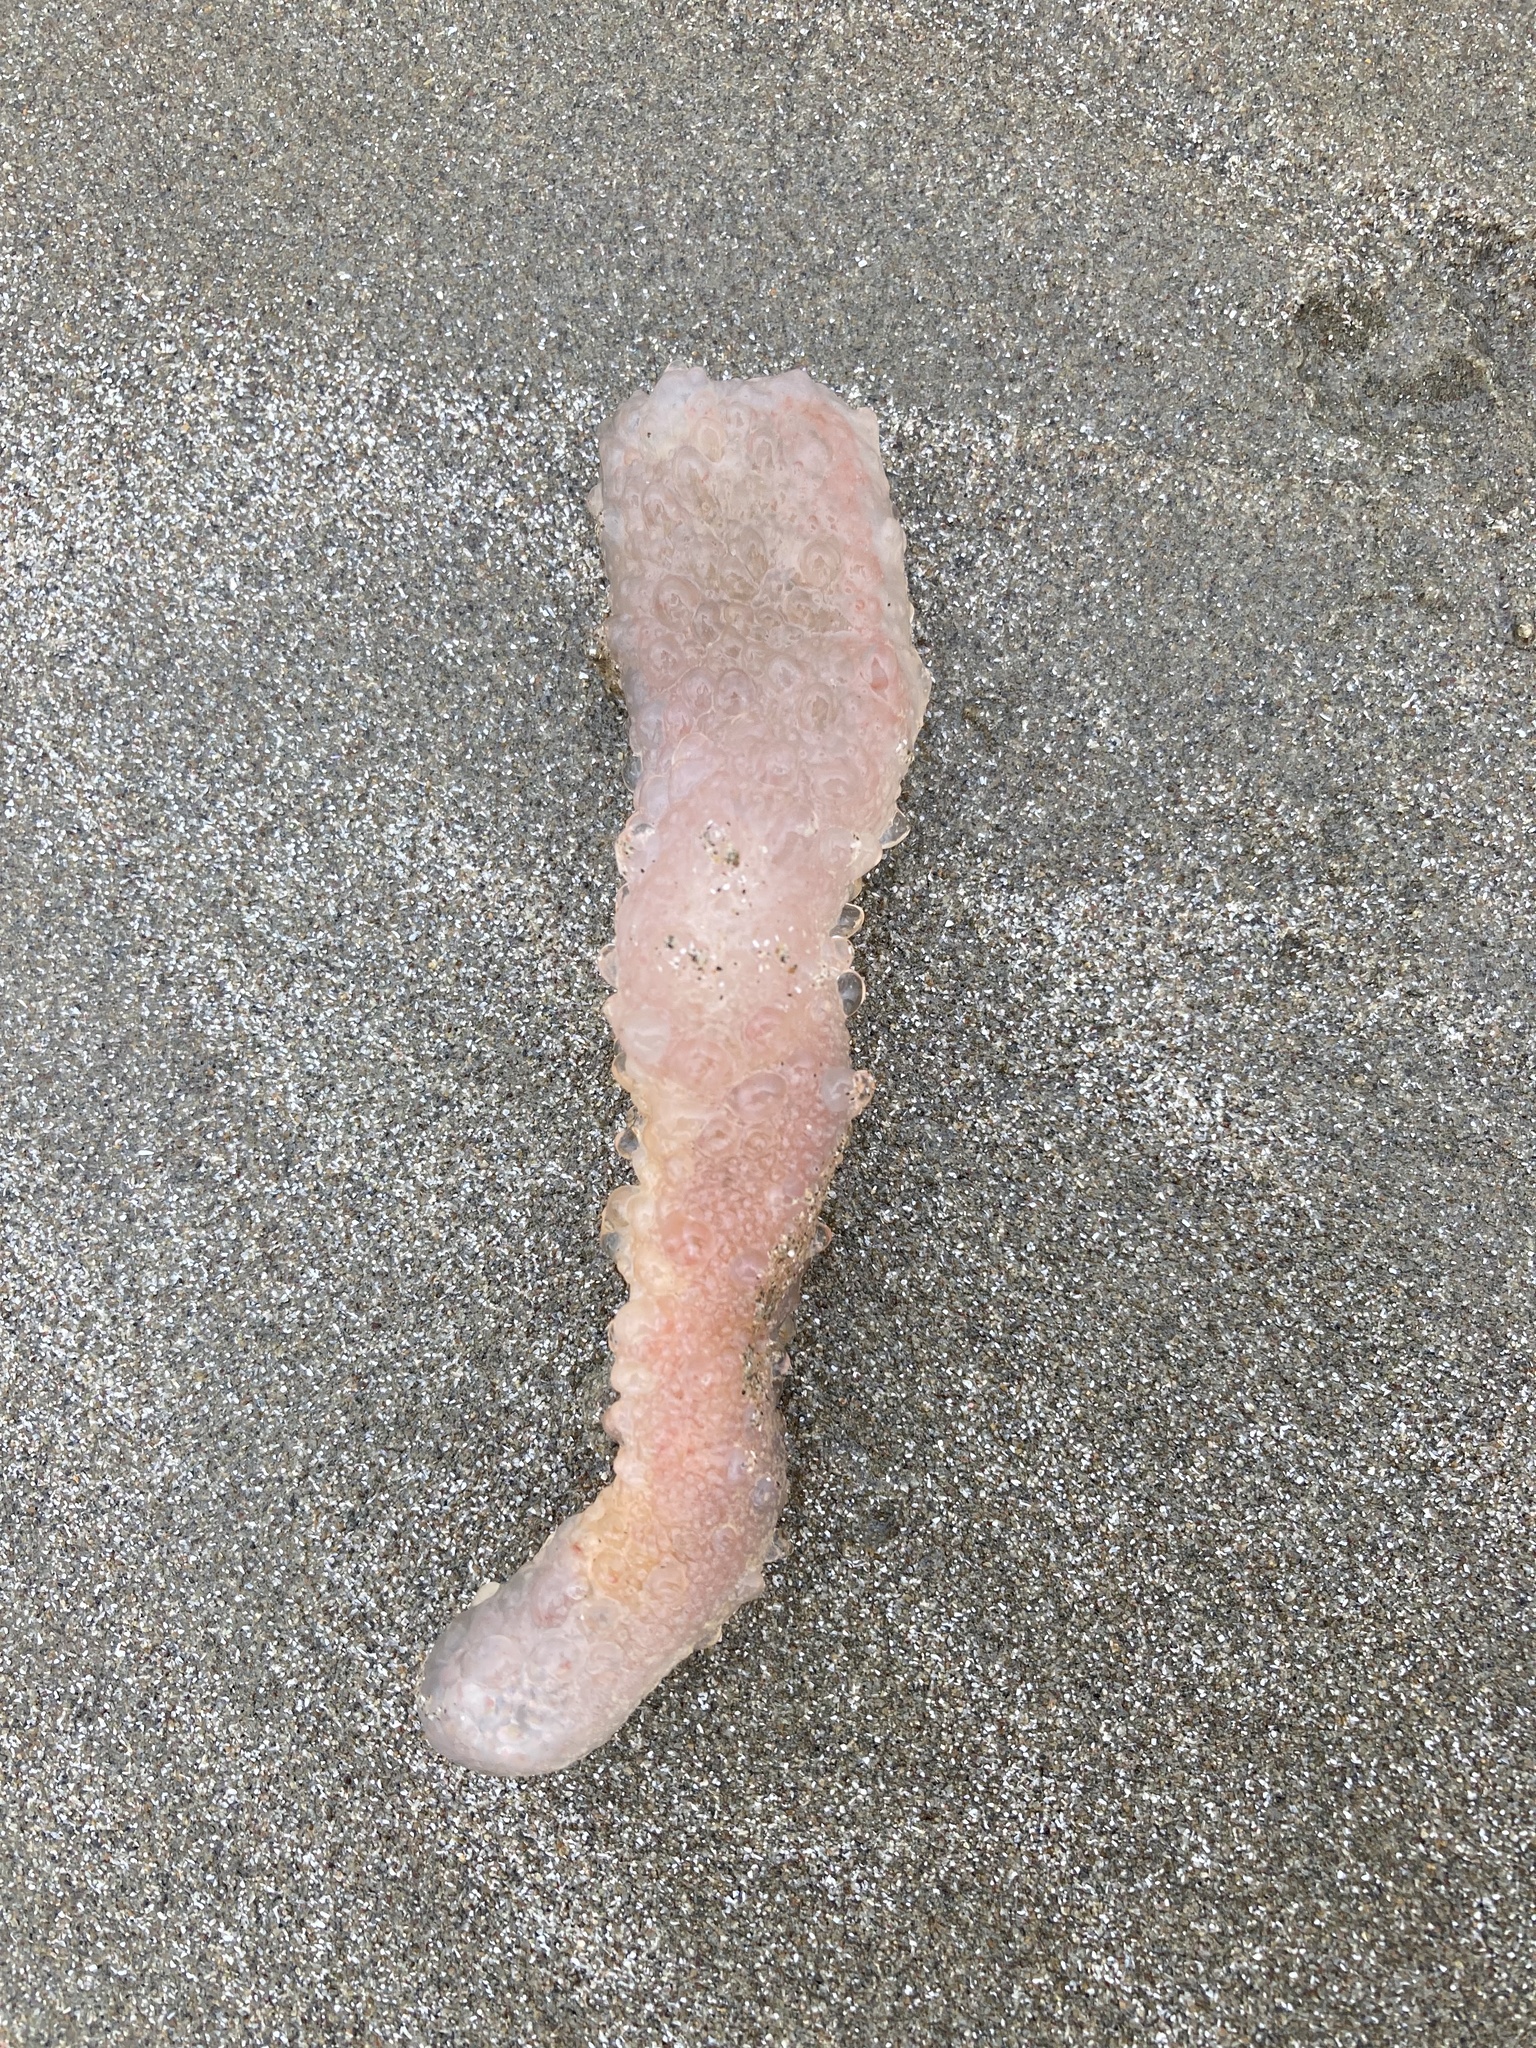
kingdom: Animalia
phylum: Chordata
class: Thaliacea
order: Pyrosomatida
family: Pyrosomatidae
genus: Pyrosoma
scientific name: Pyrosoma atlanticum
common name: Atlantic pyrosomes
